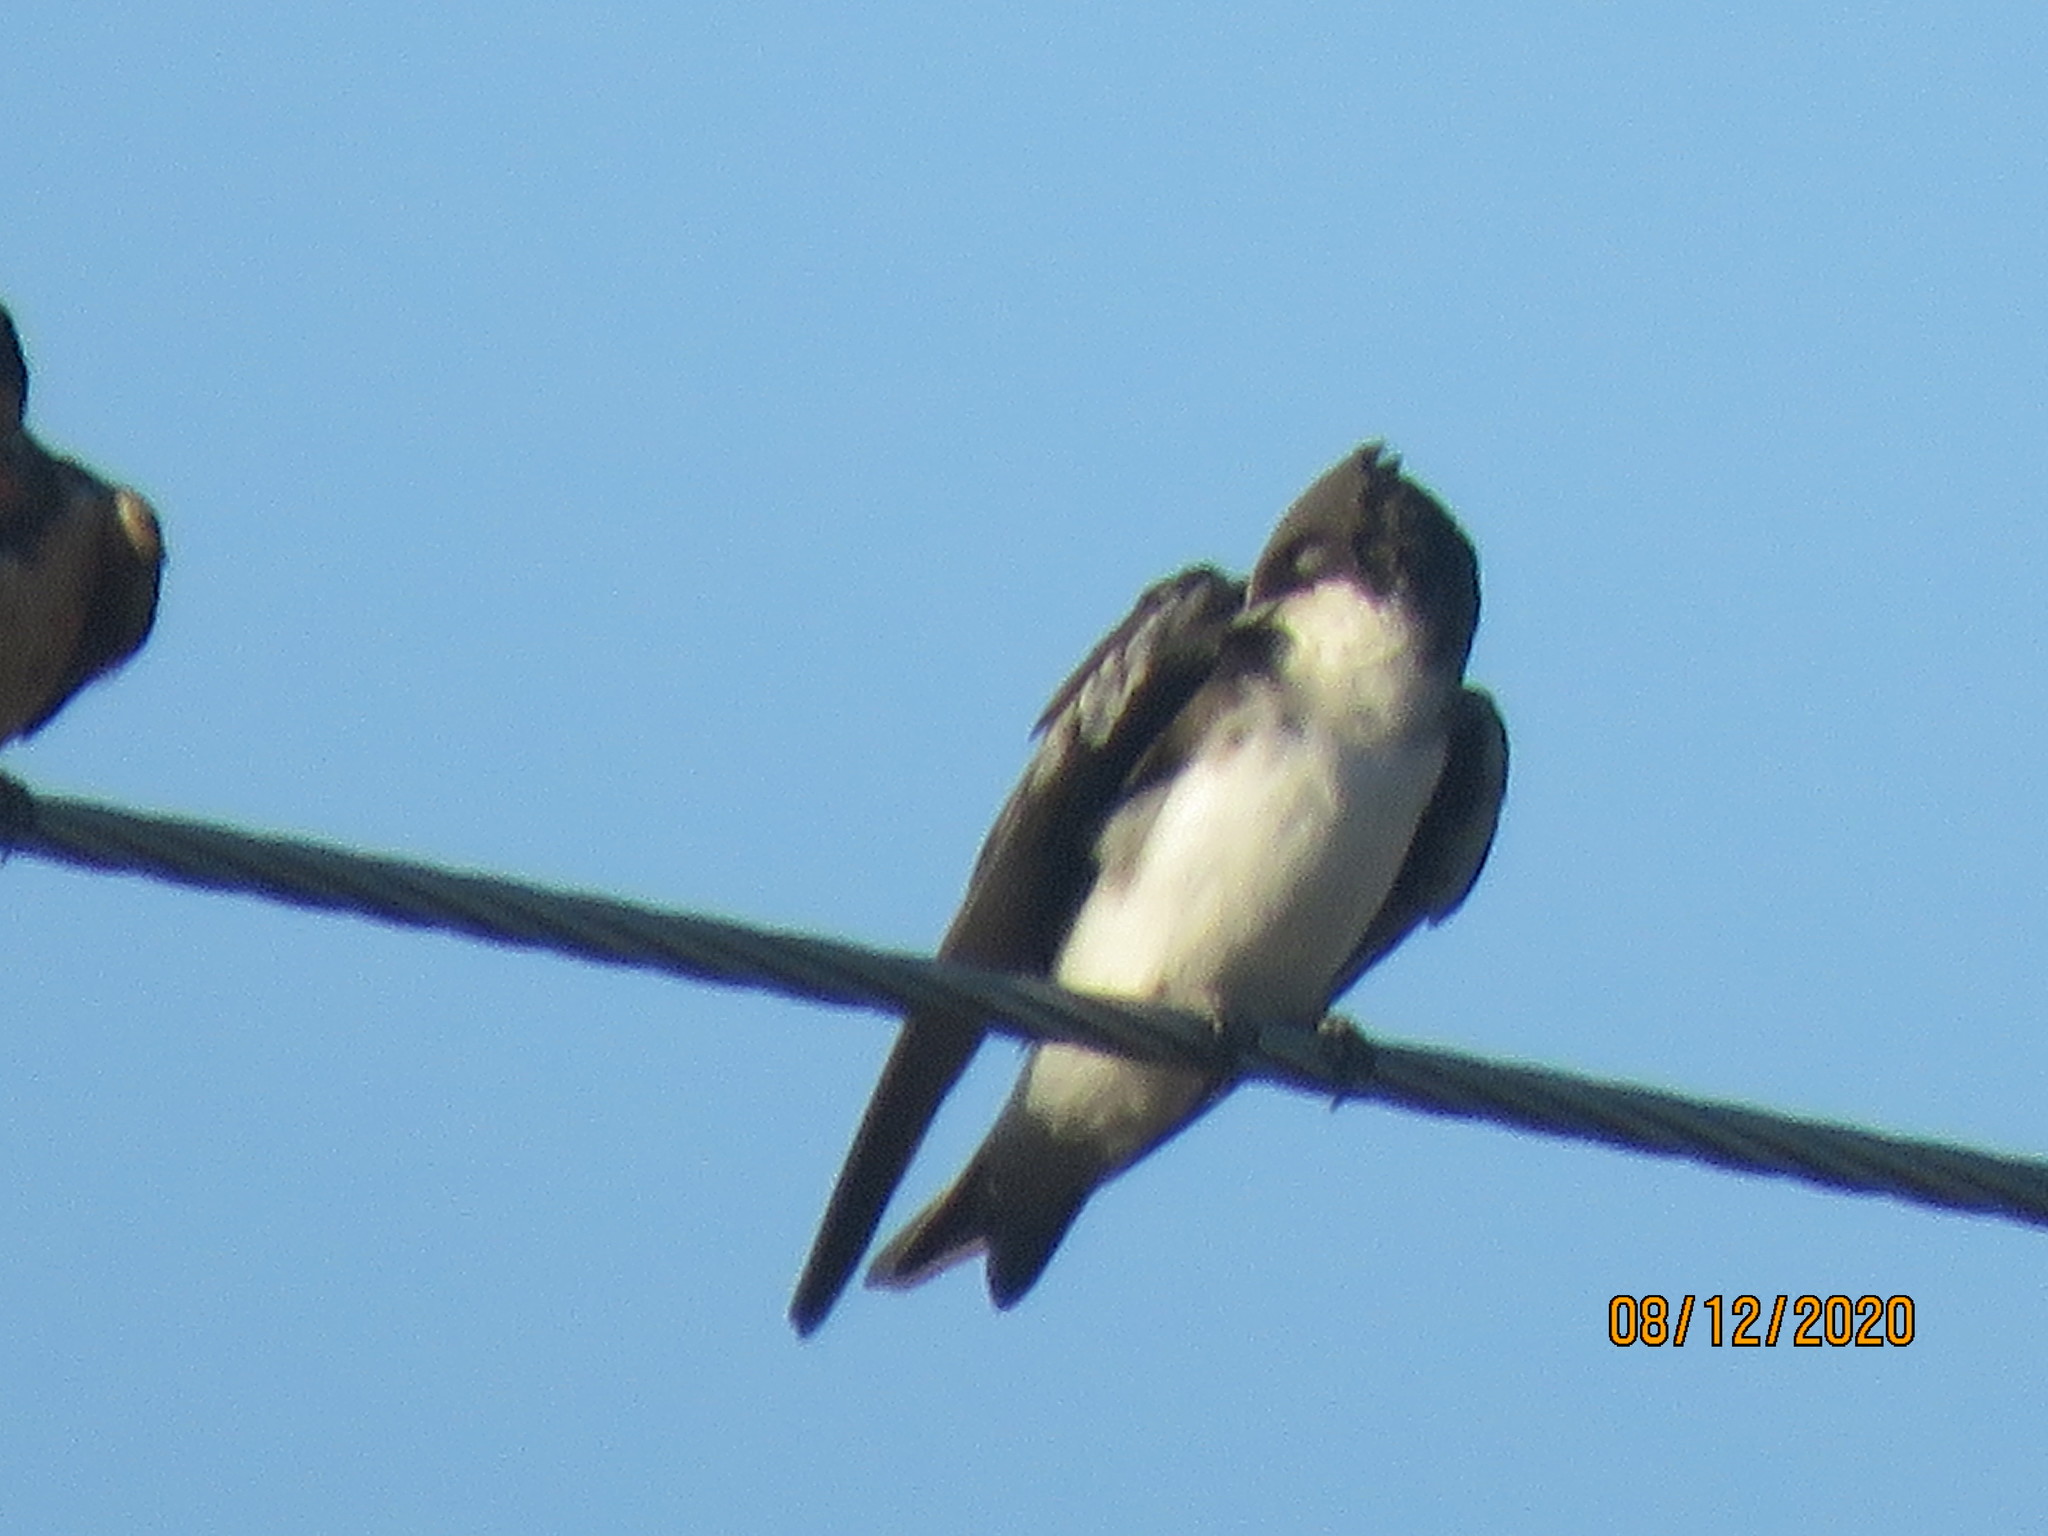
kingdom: Animalia
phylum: Chordata
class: Aves
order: Passeriformes
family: Hirundinidae
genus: Tachycineta
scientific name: Tachycineta bicolor
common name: Tree swallow
